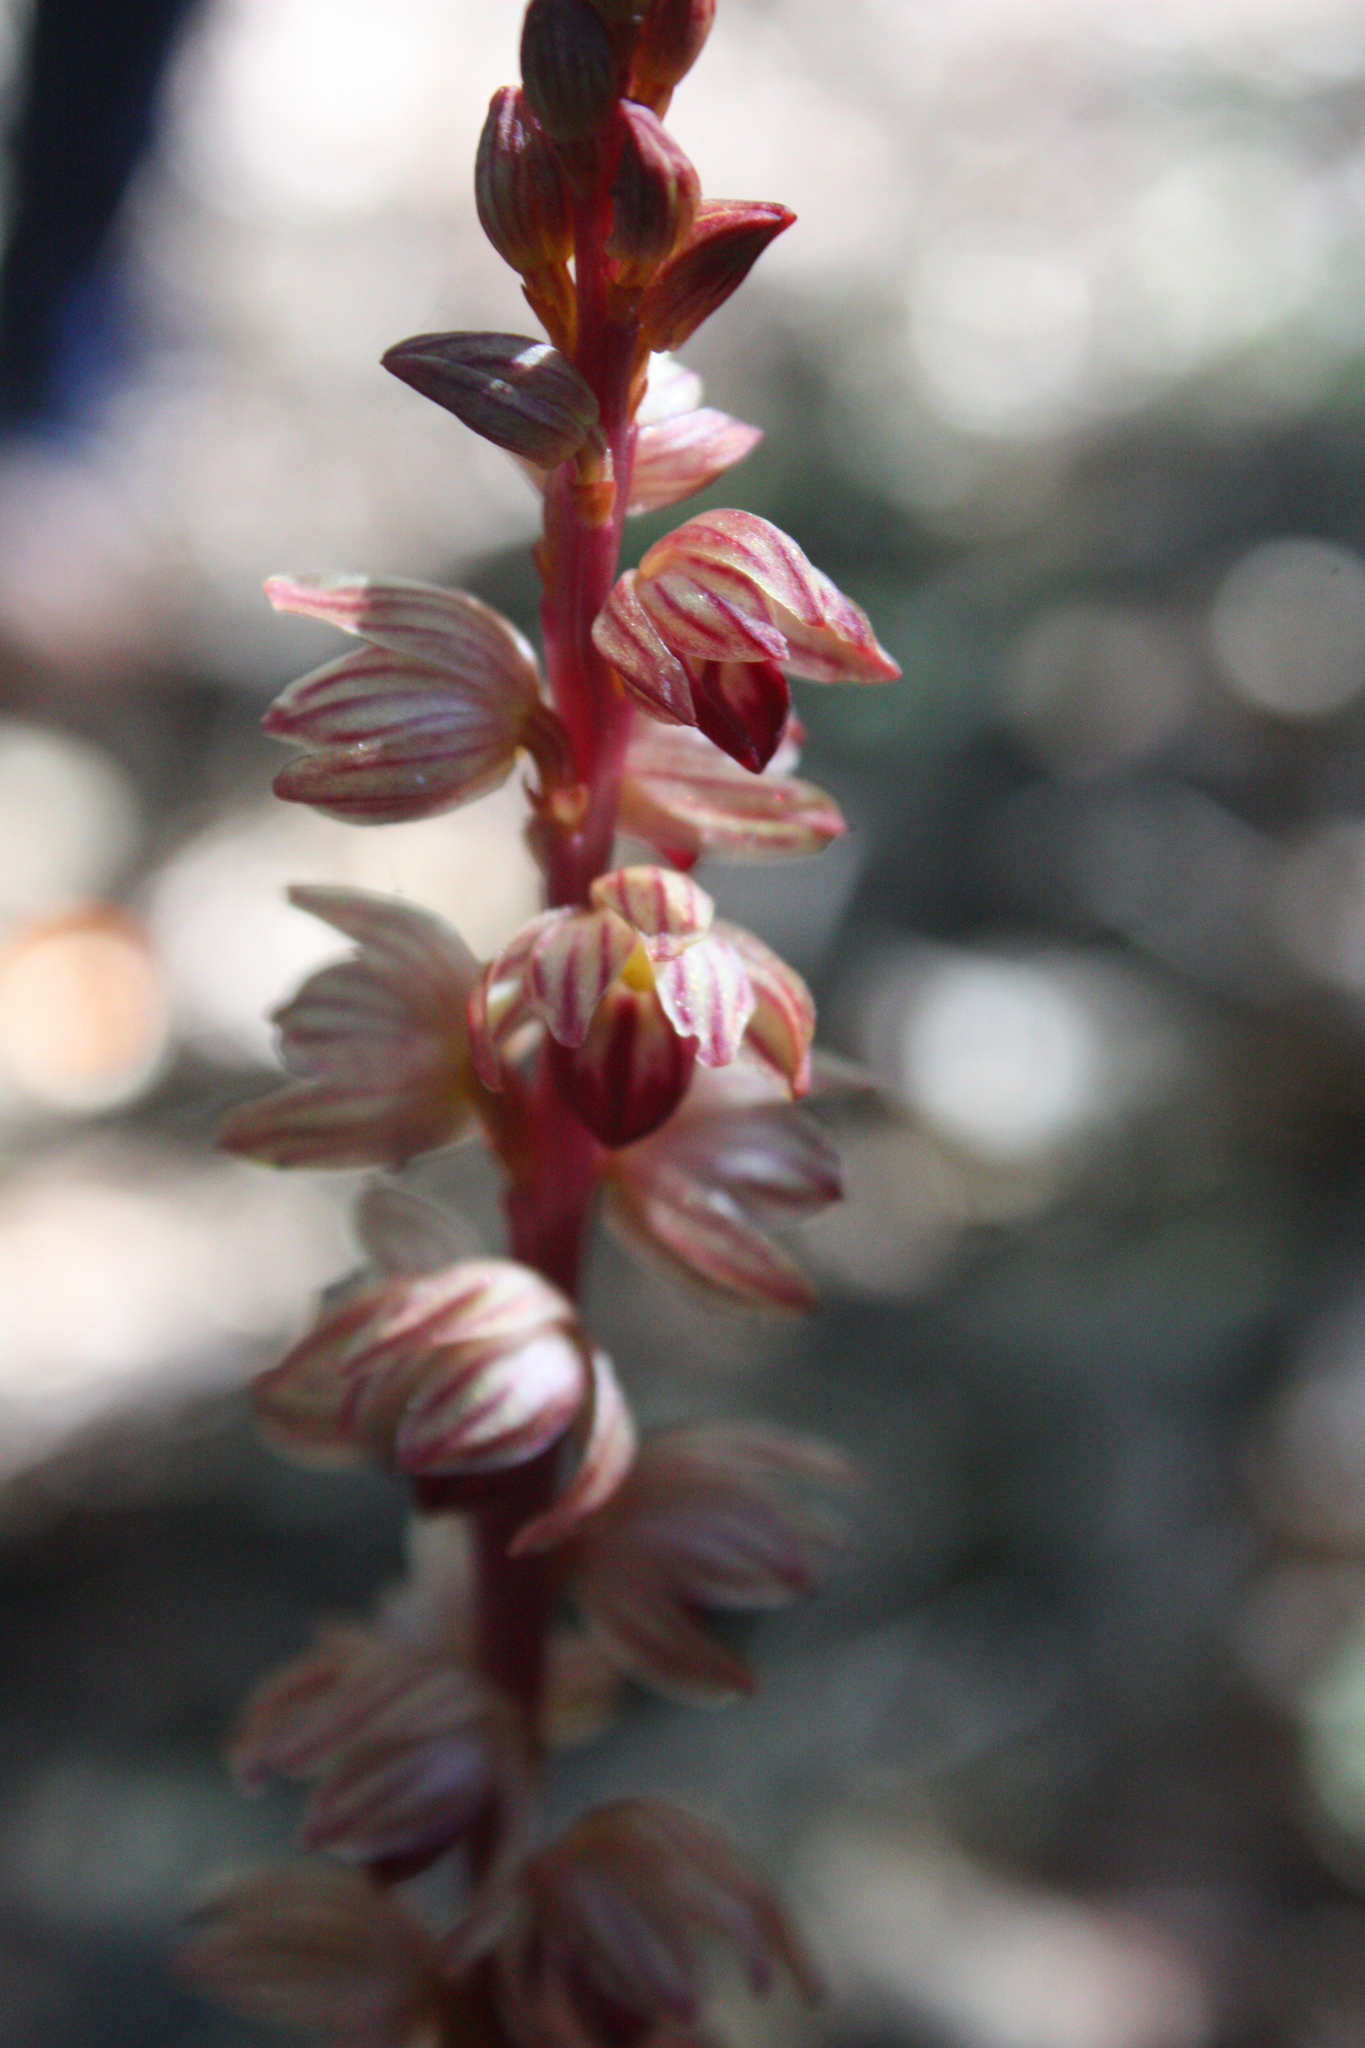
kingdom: Plantae
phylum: Tracheophyta
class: Liliopsida
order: Asparagales
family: Orchidaceae
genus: Corallorhiza
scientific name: Corallorhiza striata
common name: Hooded coralroot
